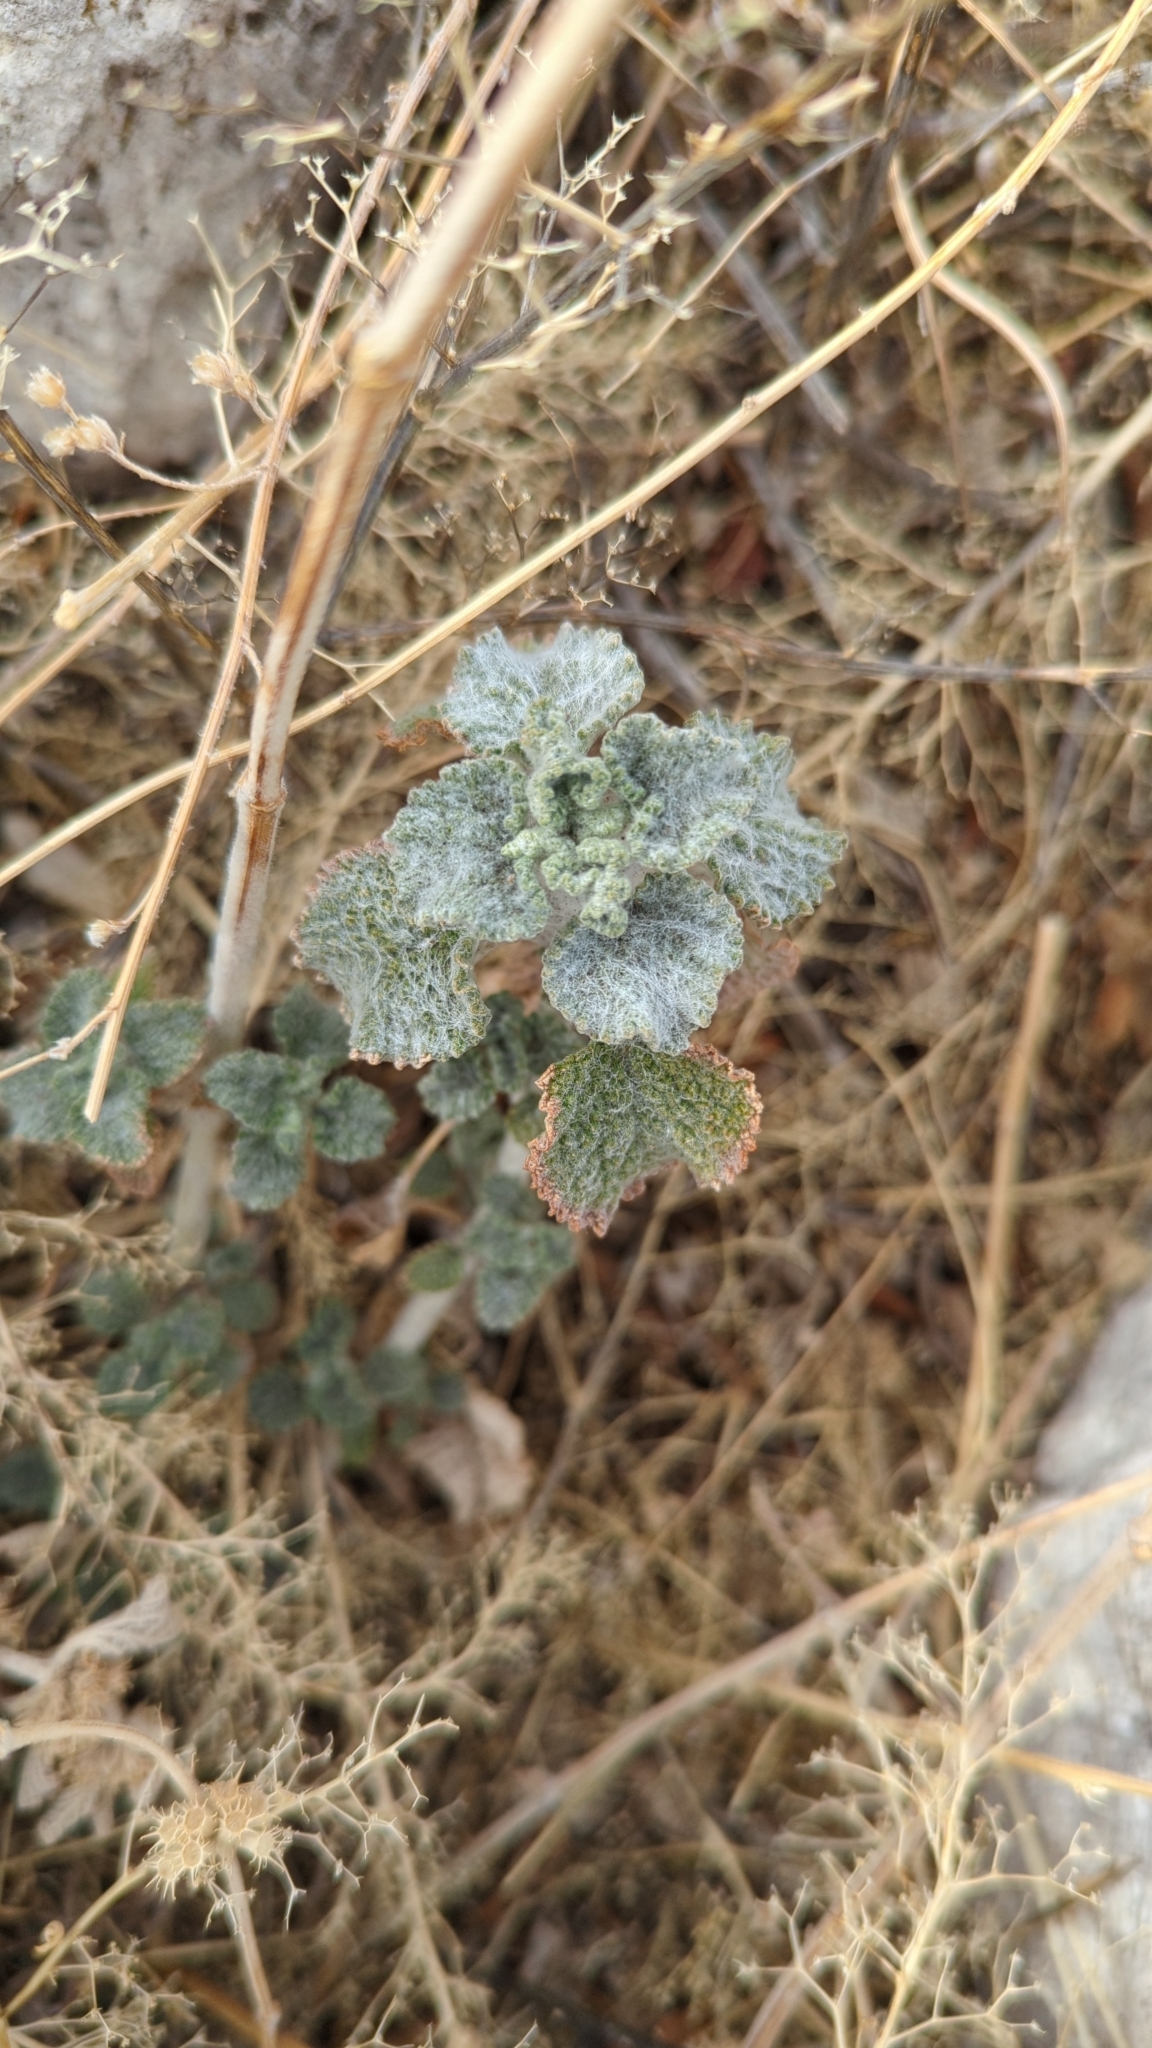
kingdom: Plantae
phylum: Tracheophyta
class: Magnoliopsida
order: Lamiales
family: Lamiaceae
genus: Marrubium
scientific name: Marrubium vulgare
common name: Horehound
